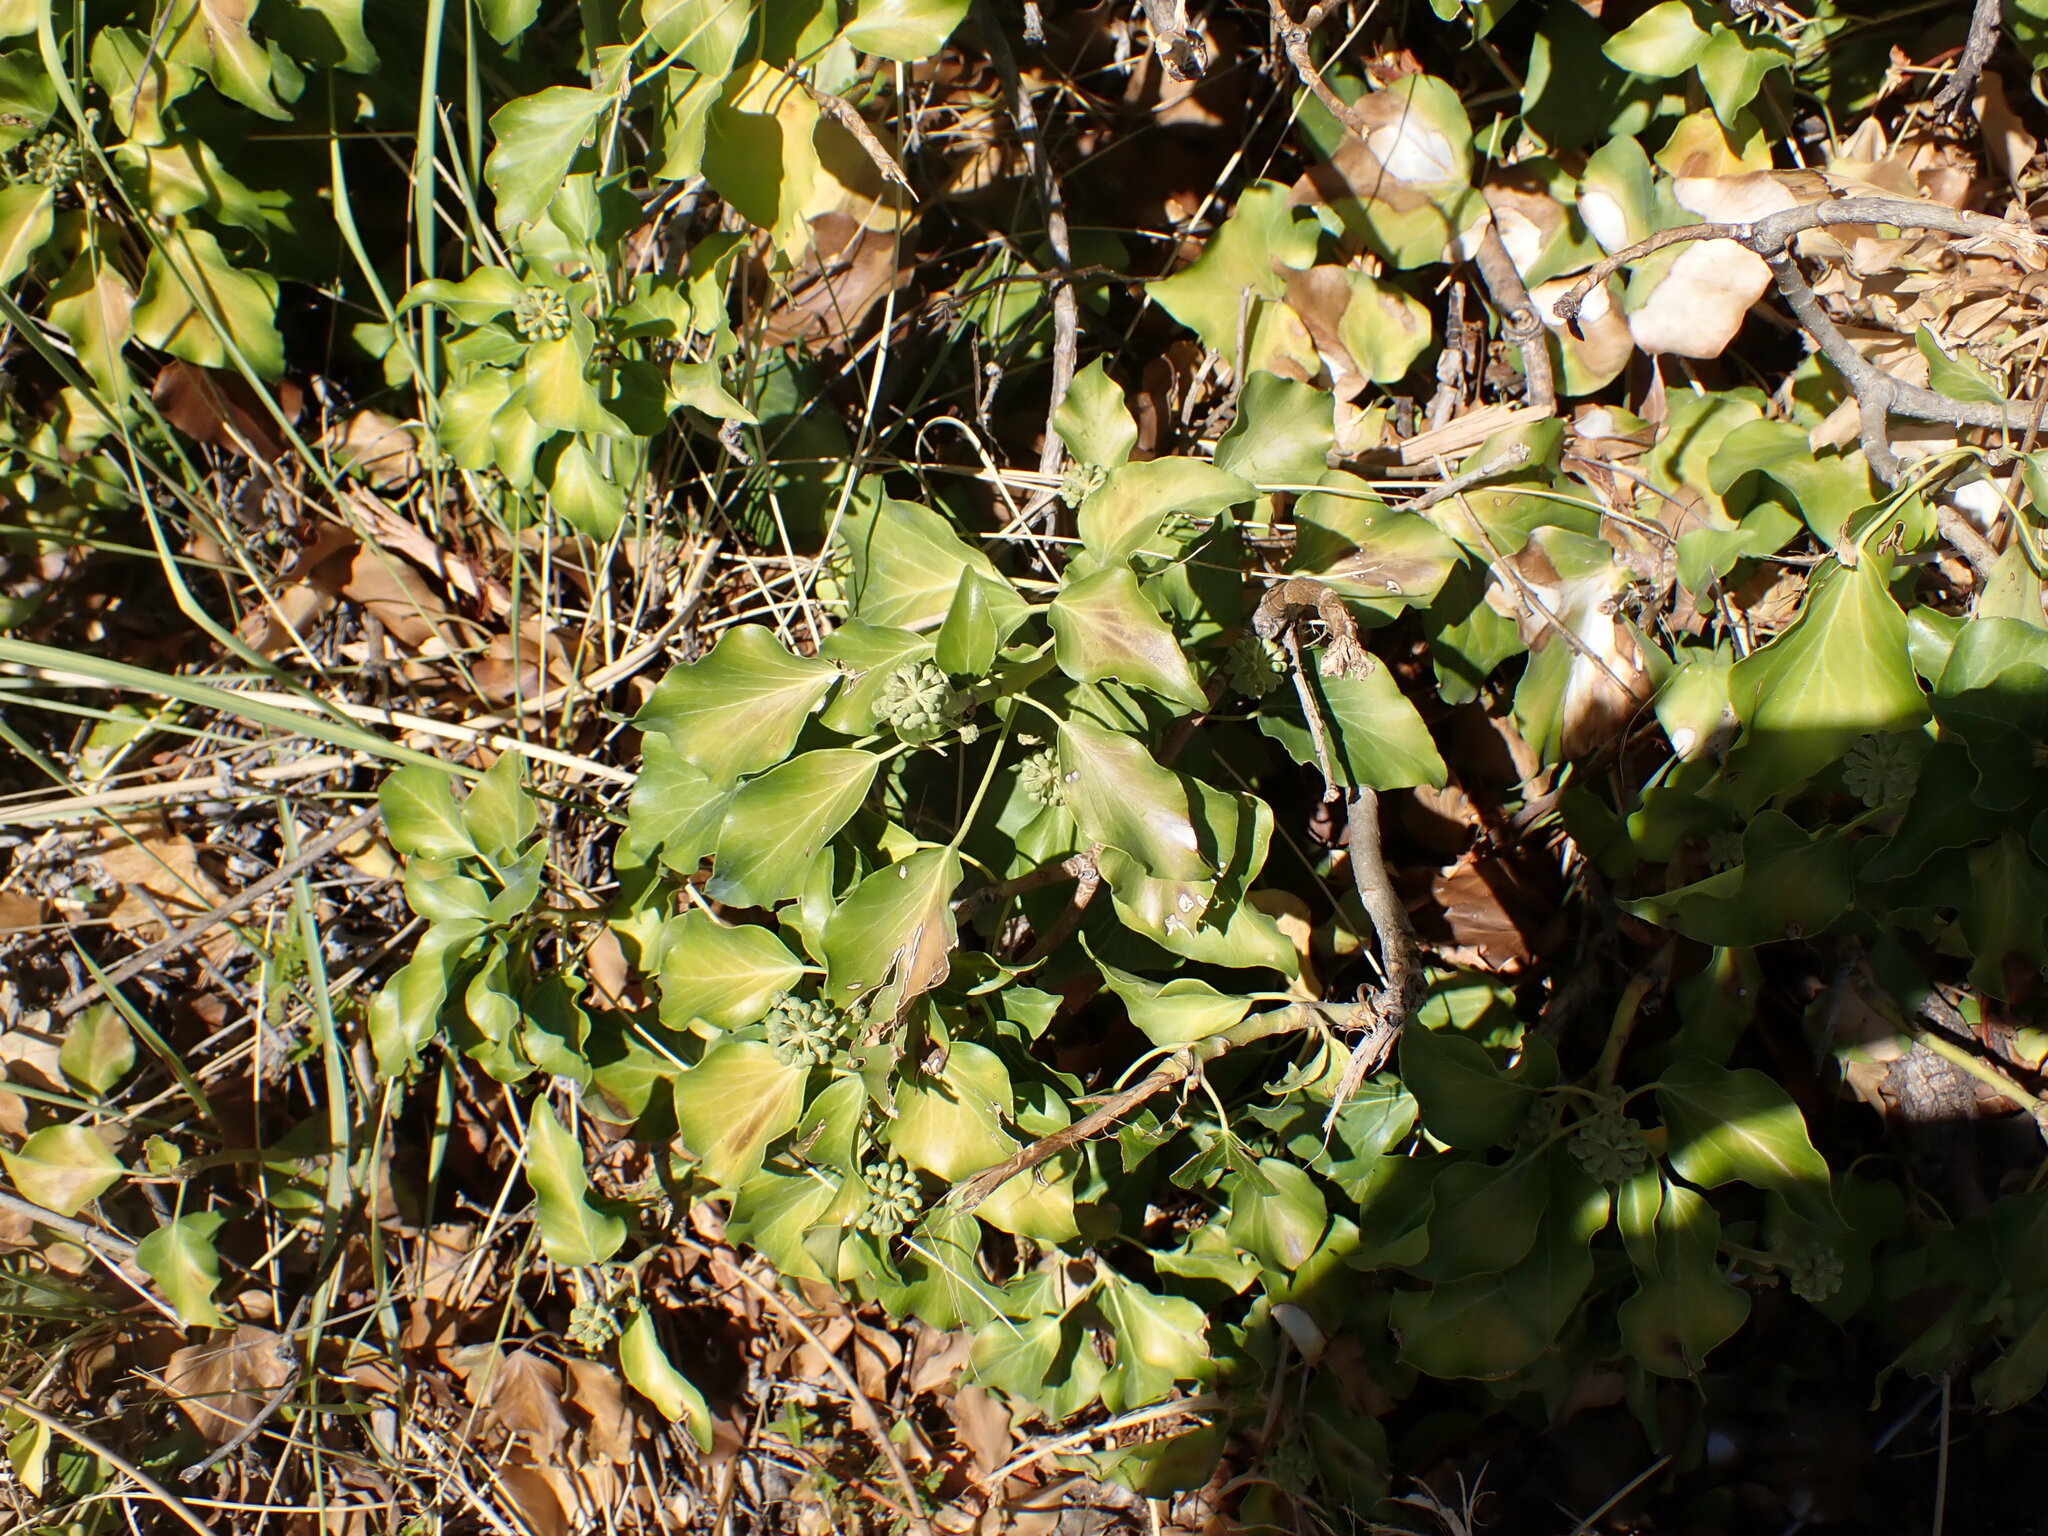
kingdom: Plantae
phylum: Tracheophyta
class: Magnoliopsida
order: Apiales
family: Araliaceae
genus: Hedera
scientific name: Hedera helix
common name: Ivy
